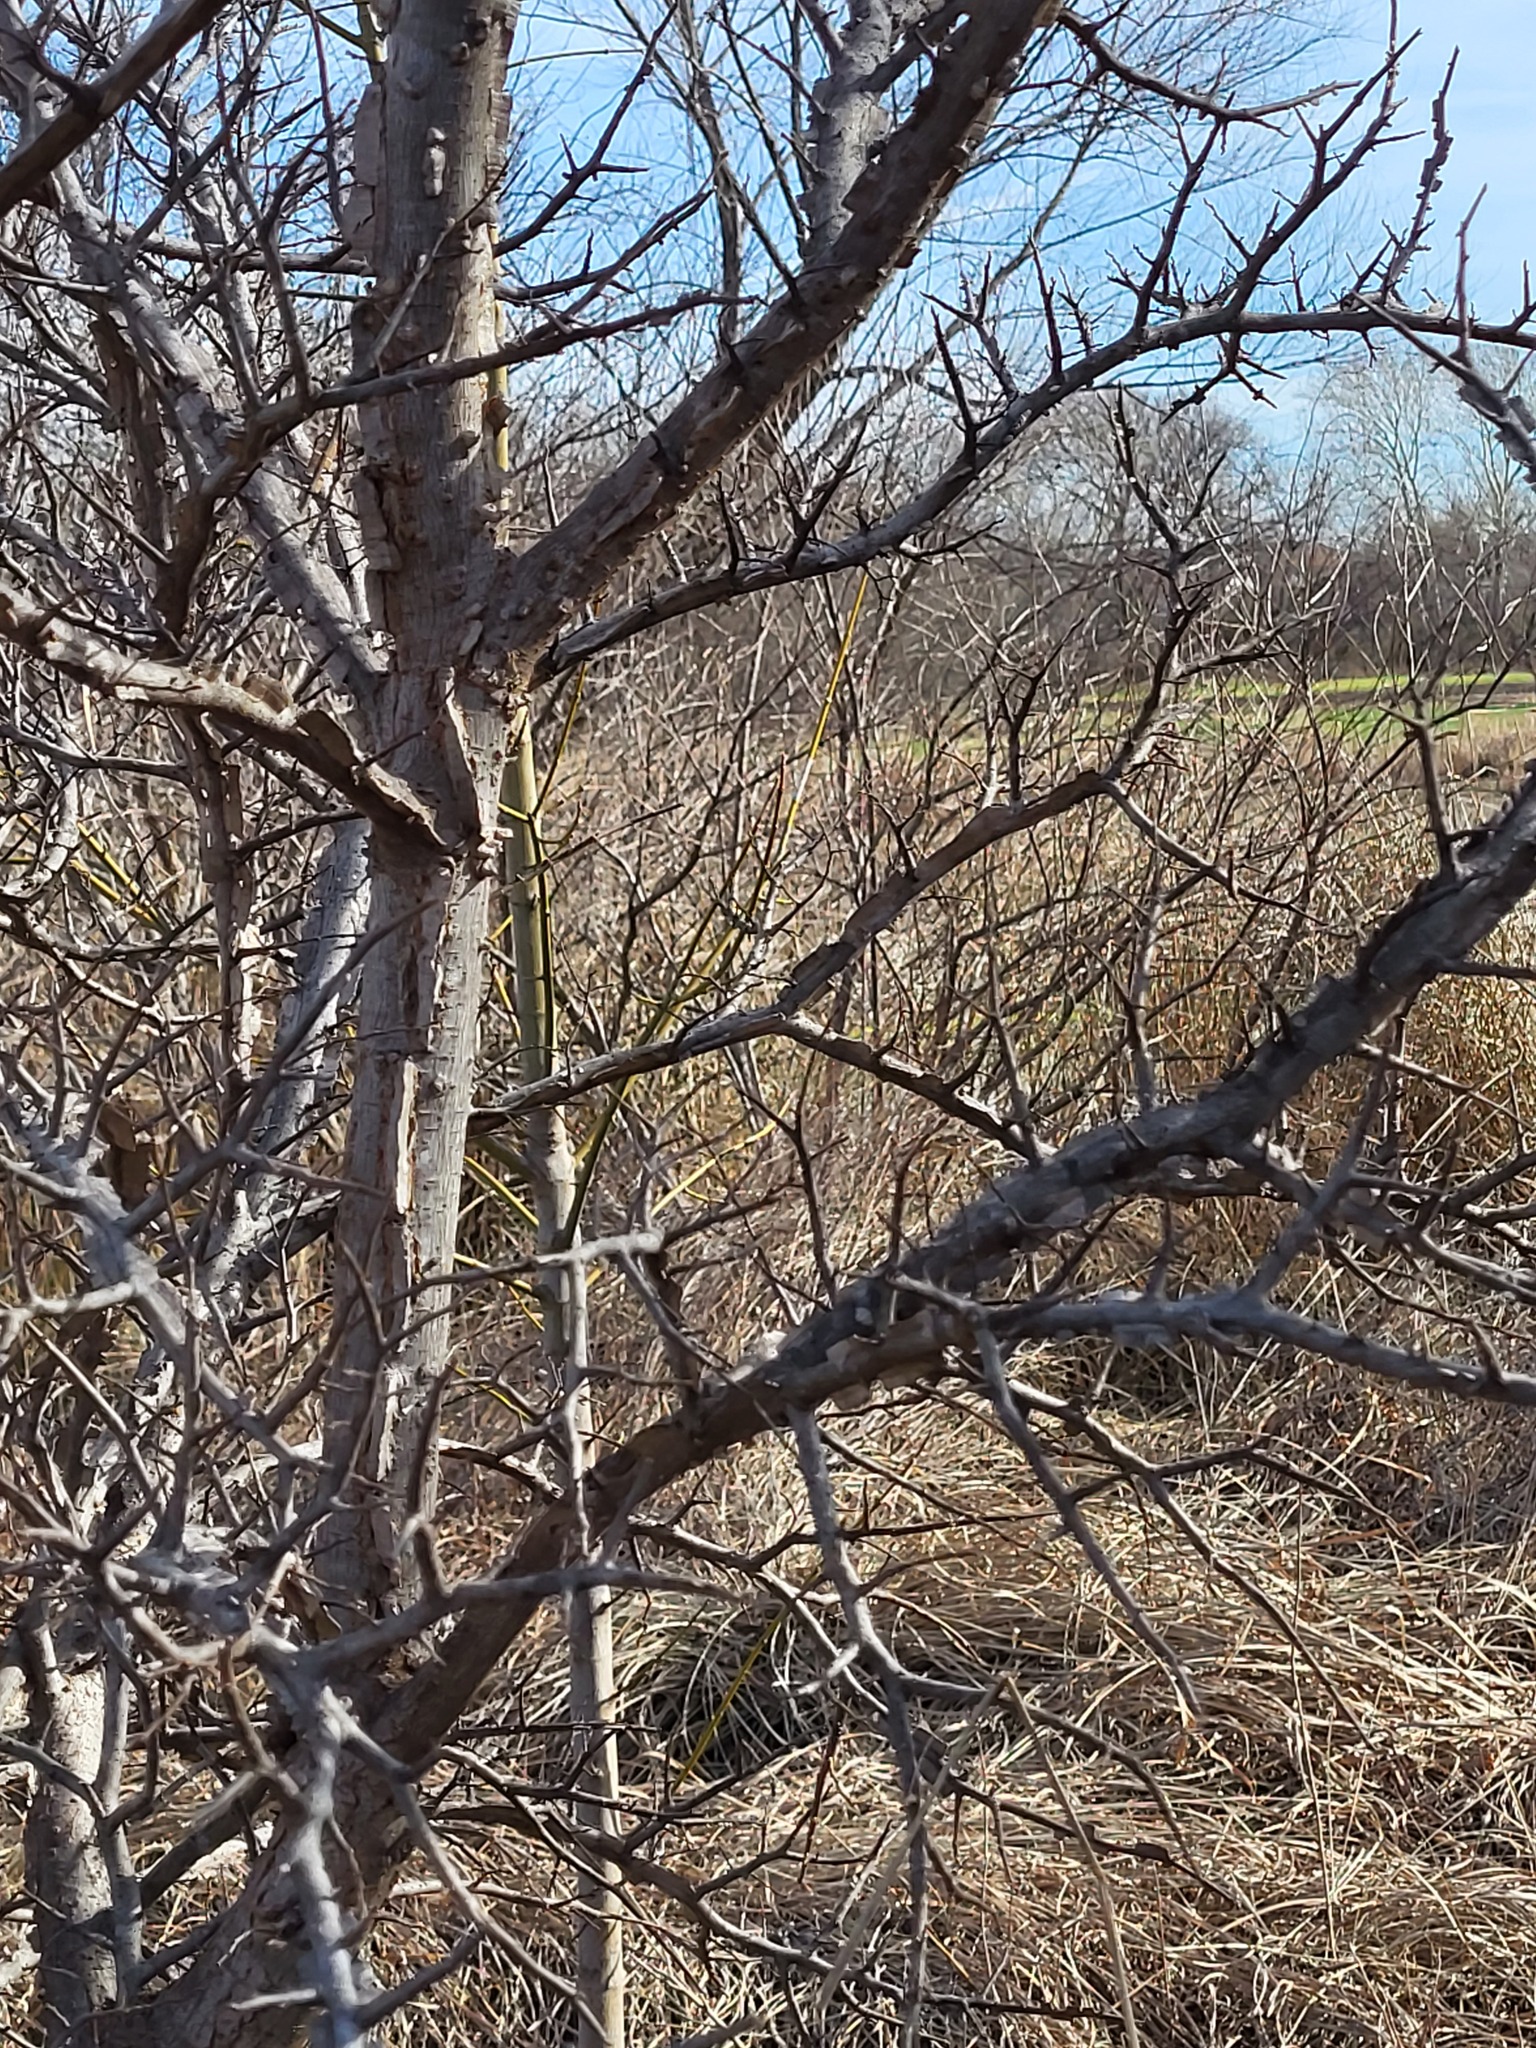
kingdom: Plantae
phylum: Tracheophyta
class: Magnoliopsida
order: Rosales
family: Ulmaceae
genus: Ulmus
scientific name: Ulmus crassifolia
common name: Basket elm
